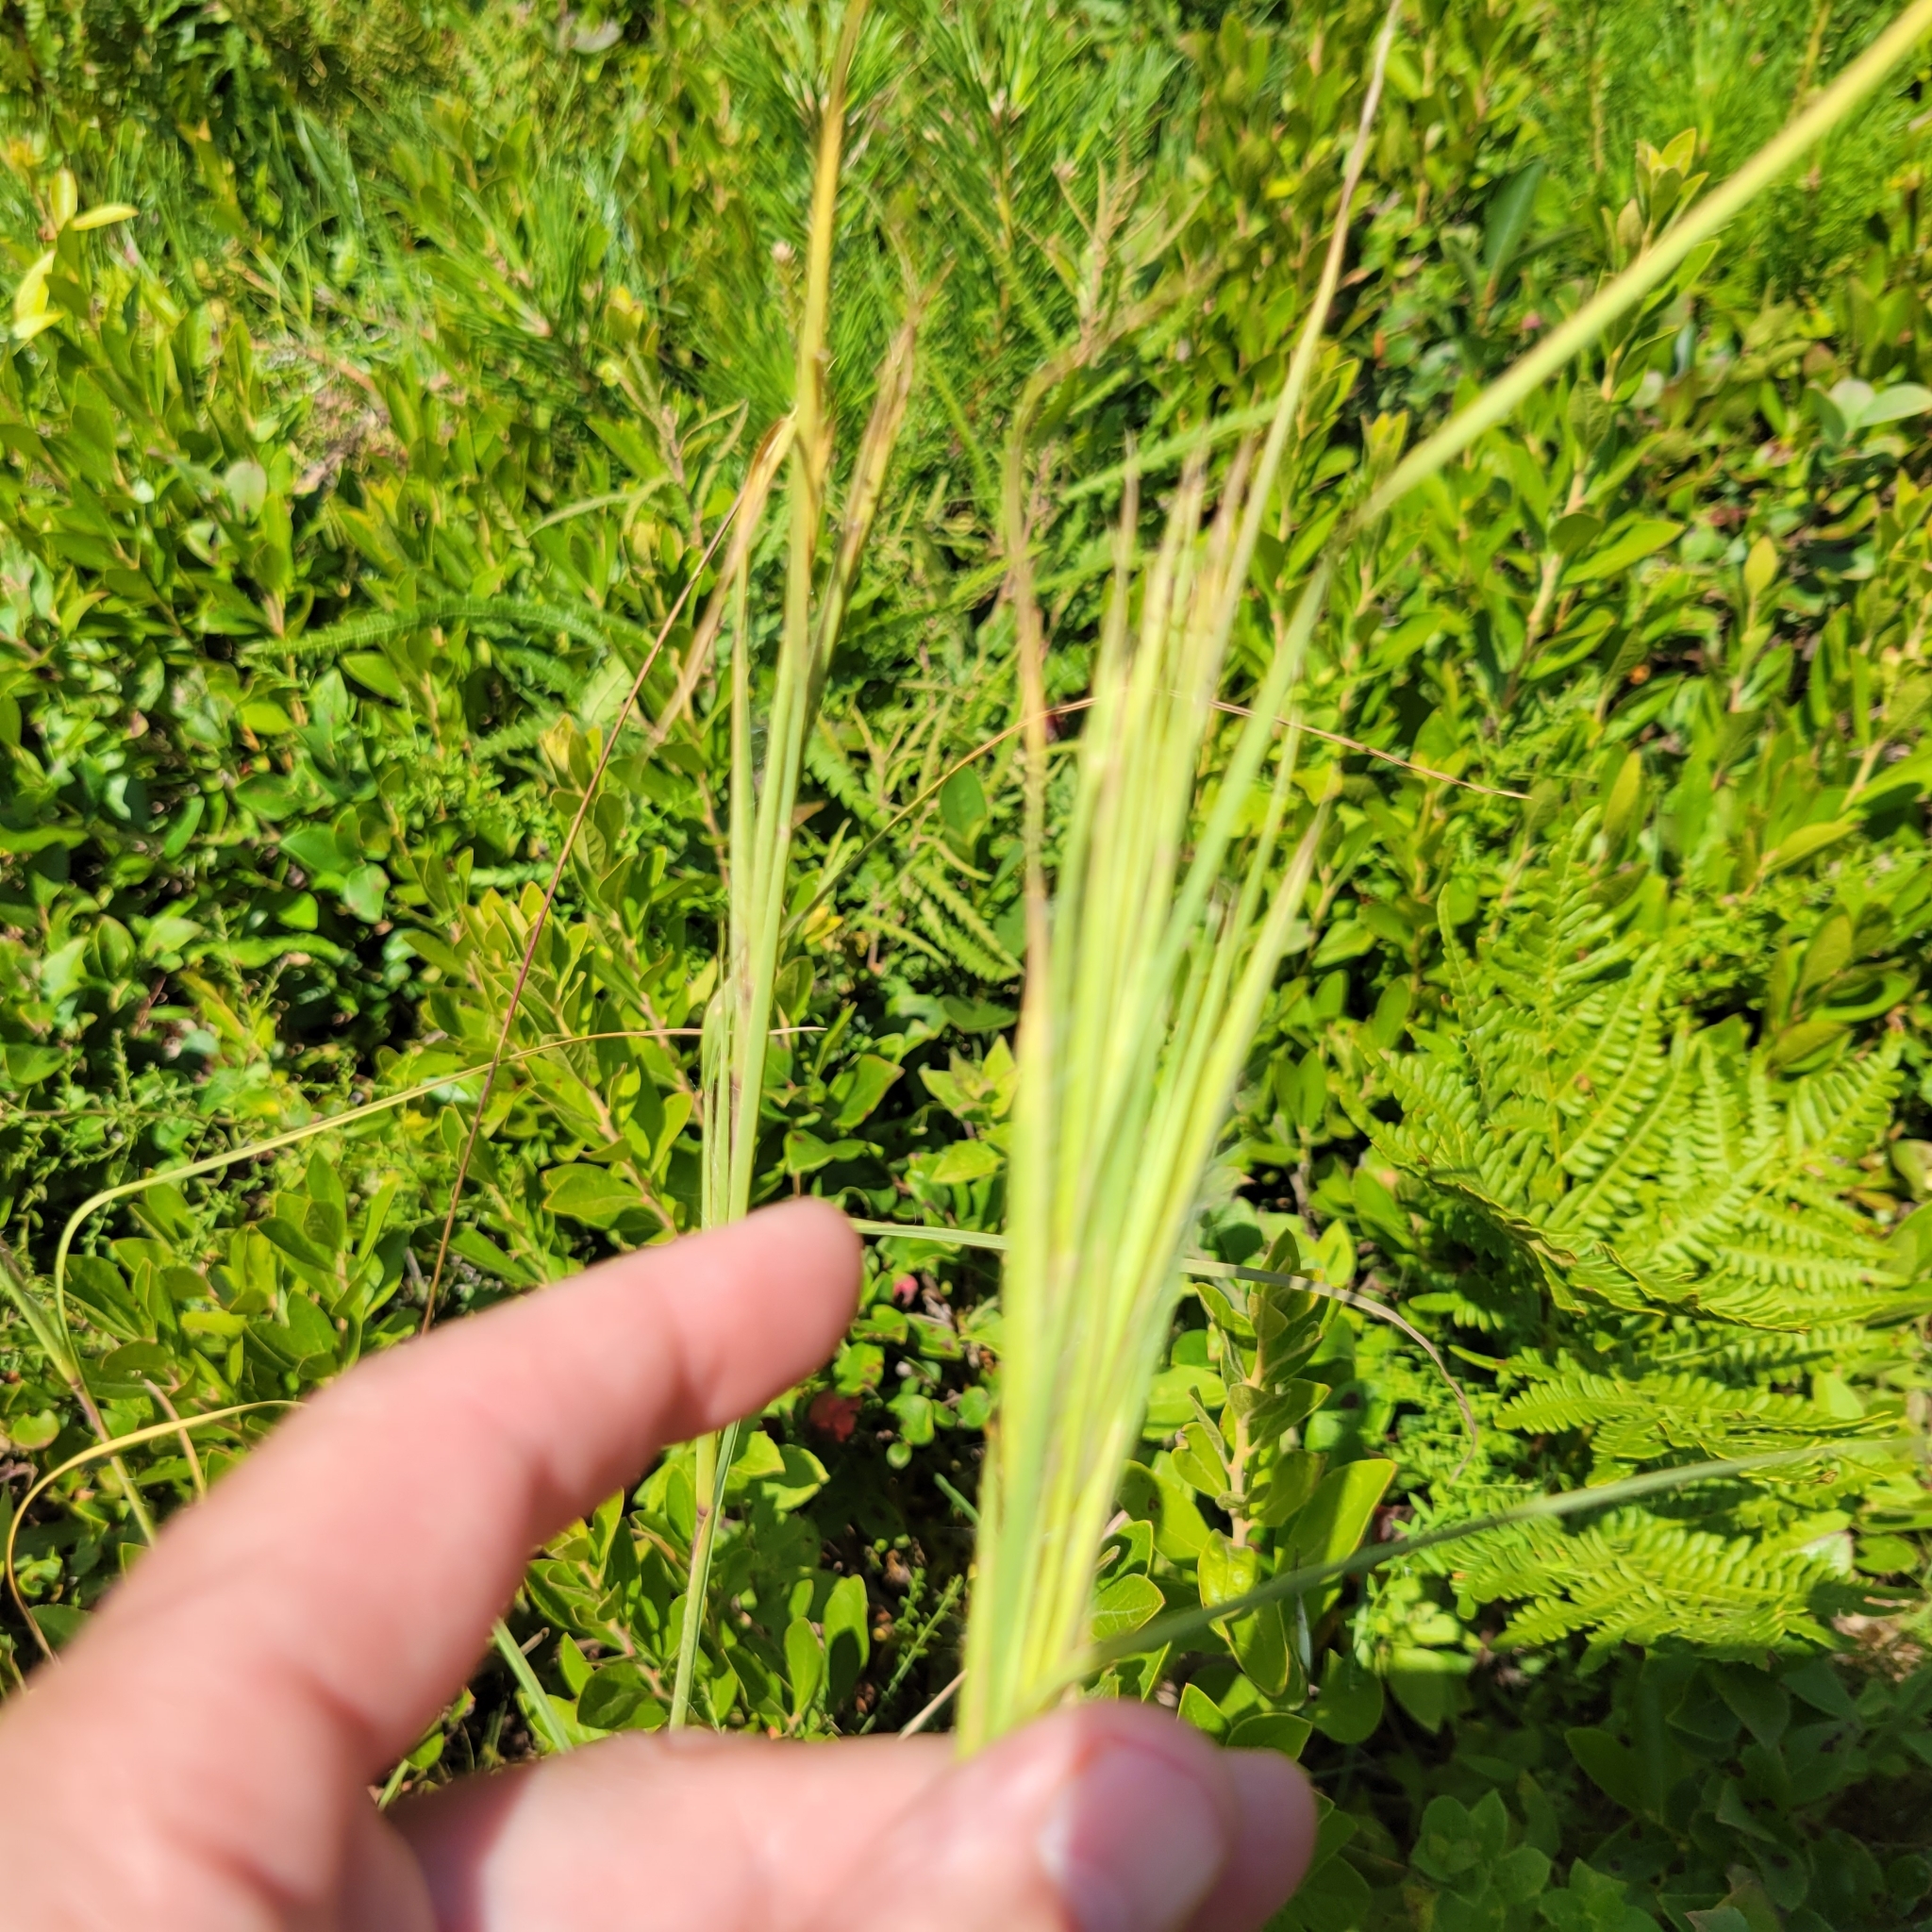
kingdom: Plantae
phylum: Tracheophyta
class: Liliopsida
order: Poales
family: Poaceae
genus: Andropogon
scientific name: Andropogon glomeratus
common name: Bushy beard grass
